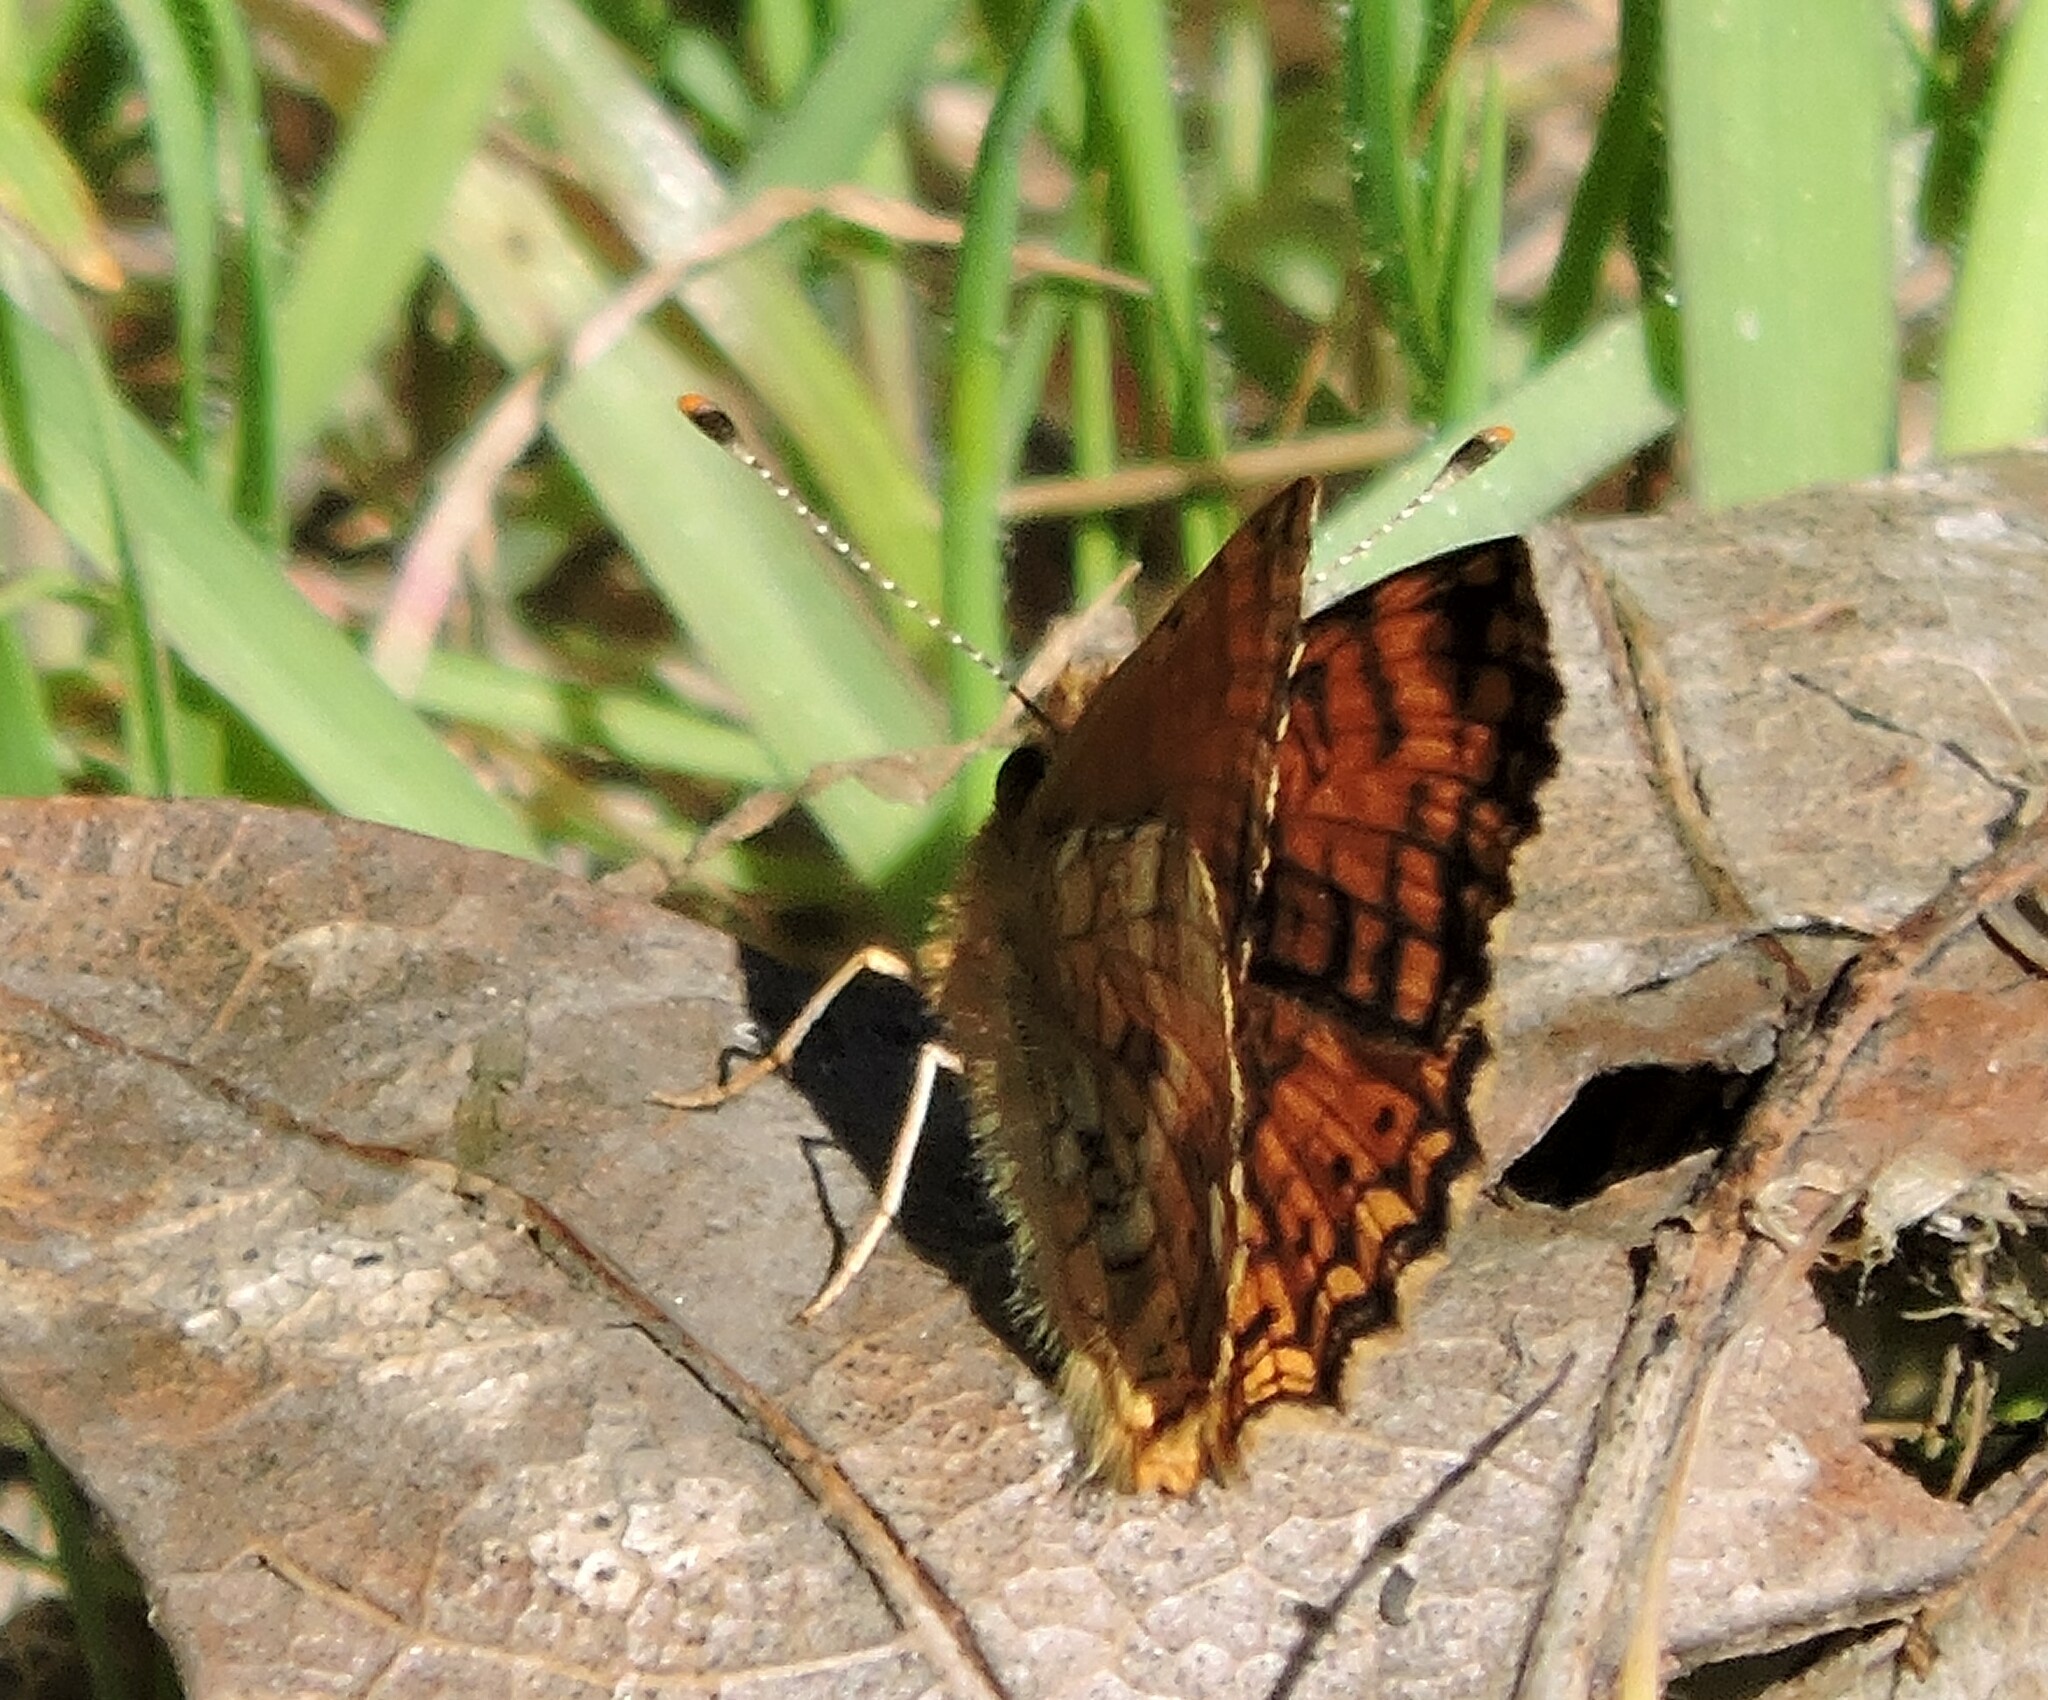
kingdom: Animalia
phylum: Arthropoda
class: Insecta
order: Lepidoptera
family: Nymphalidae
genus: Eresia
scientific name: Eresia aveyrona
